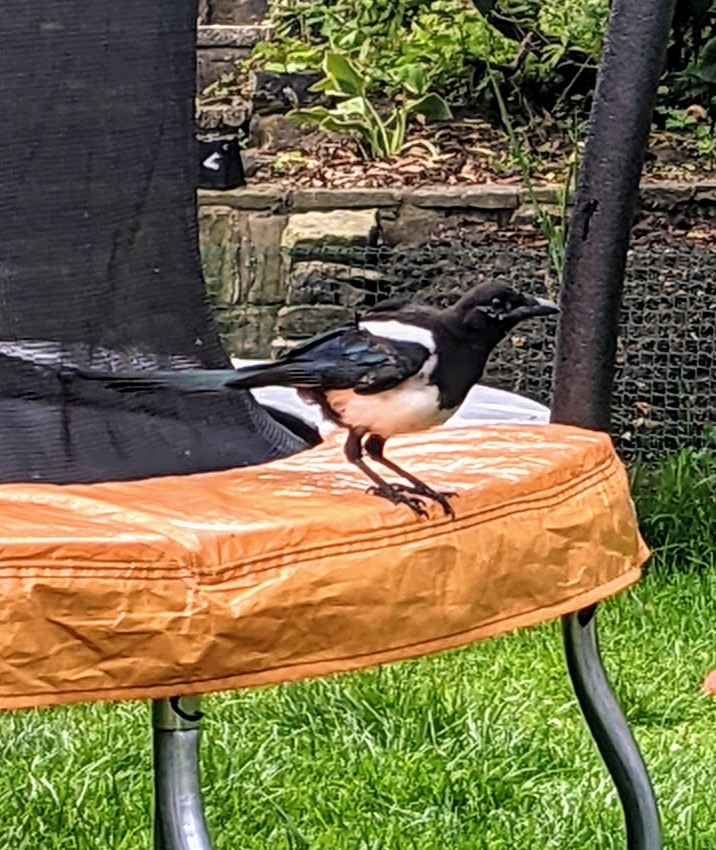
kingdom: Animalia
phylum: Chordata
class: Aves
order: Passeriformes
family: Corvidae
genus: Pica
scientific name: Pica pica
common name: Eurasian magpie
